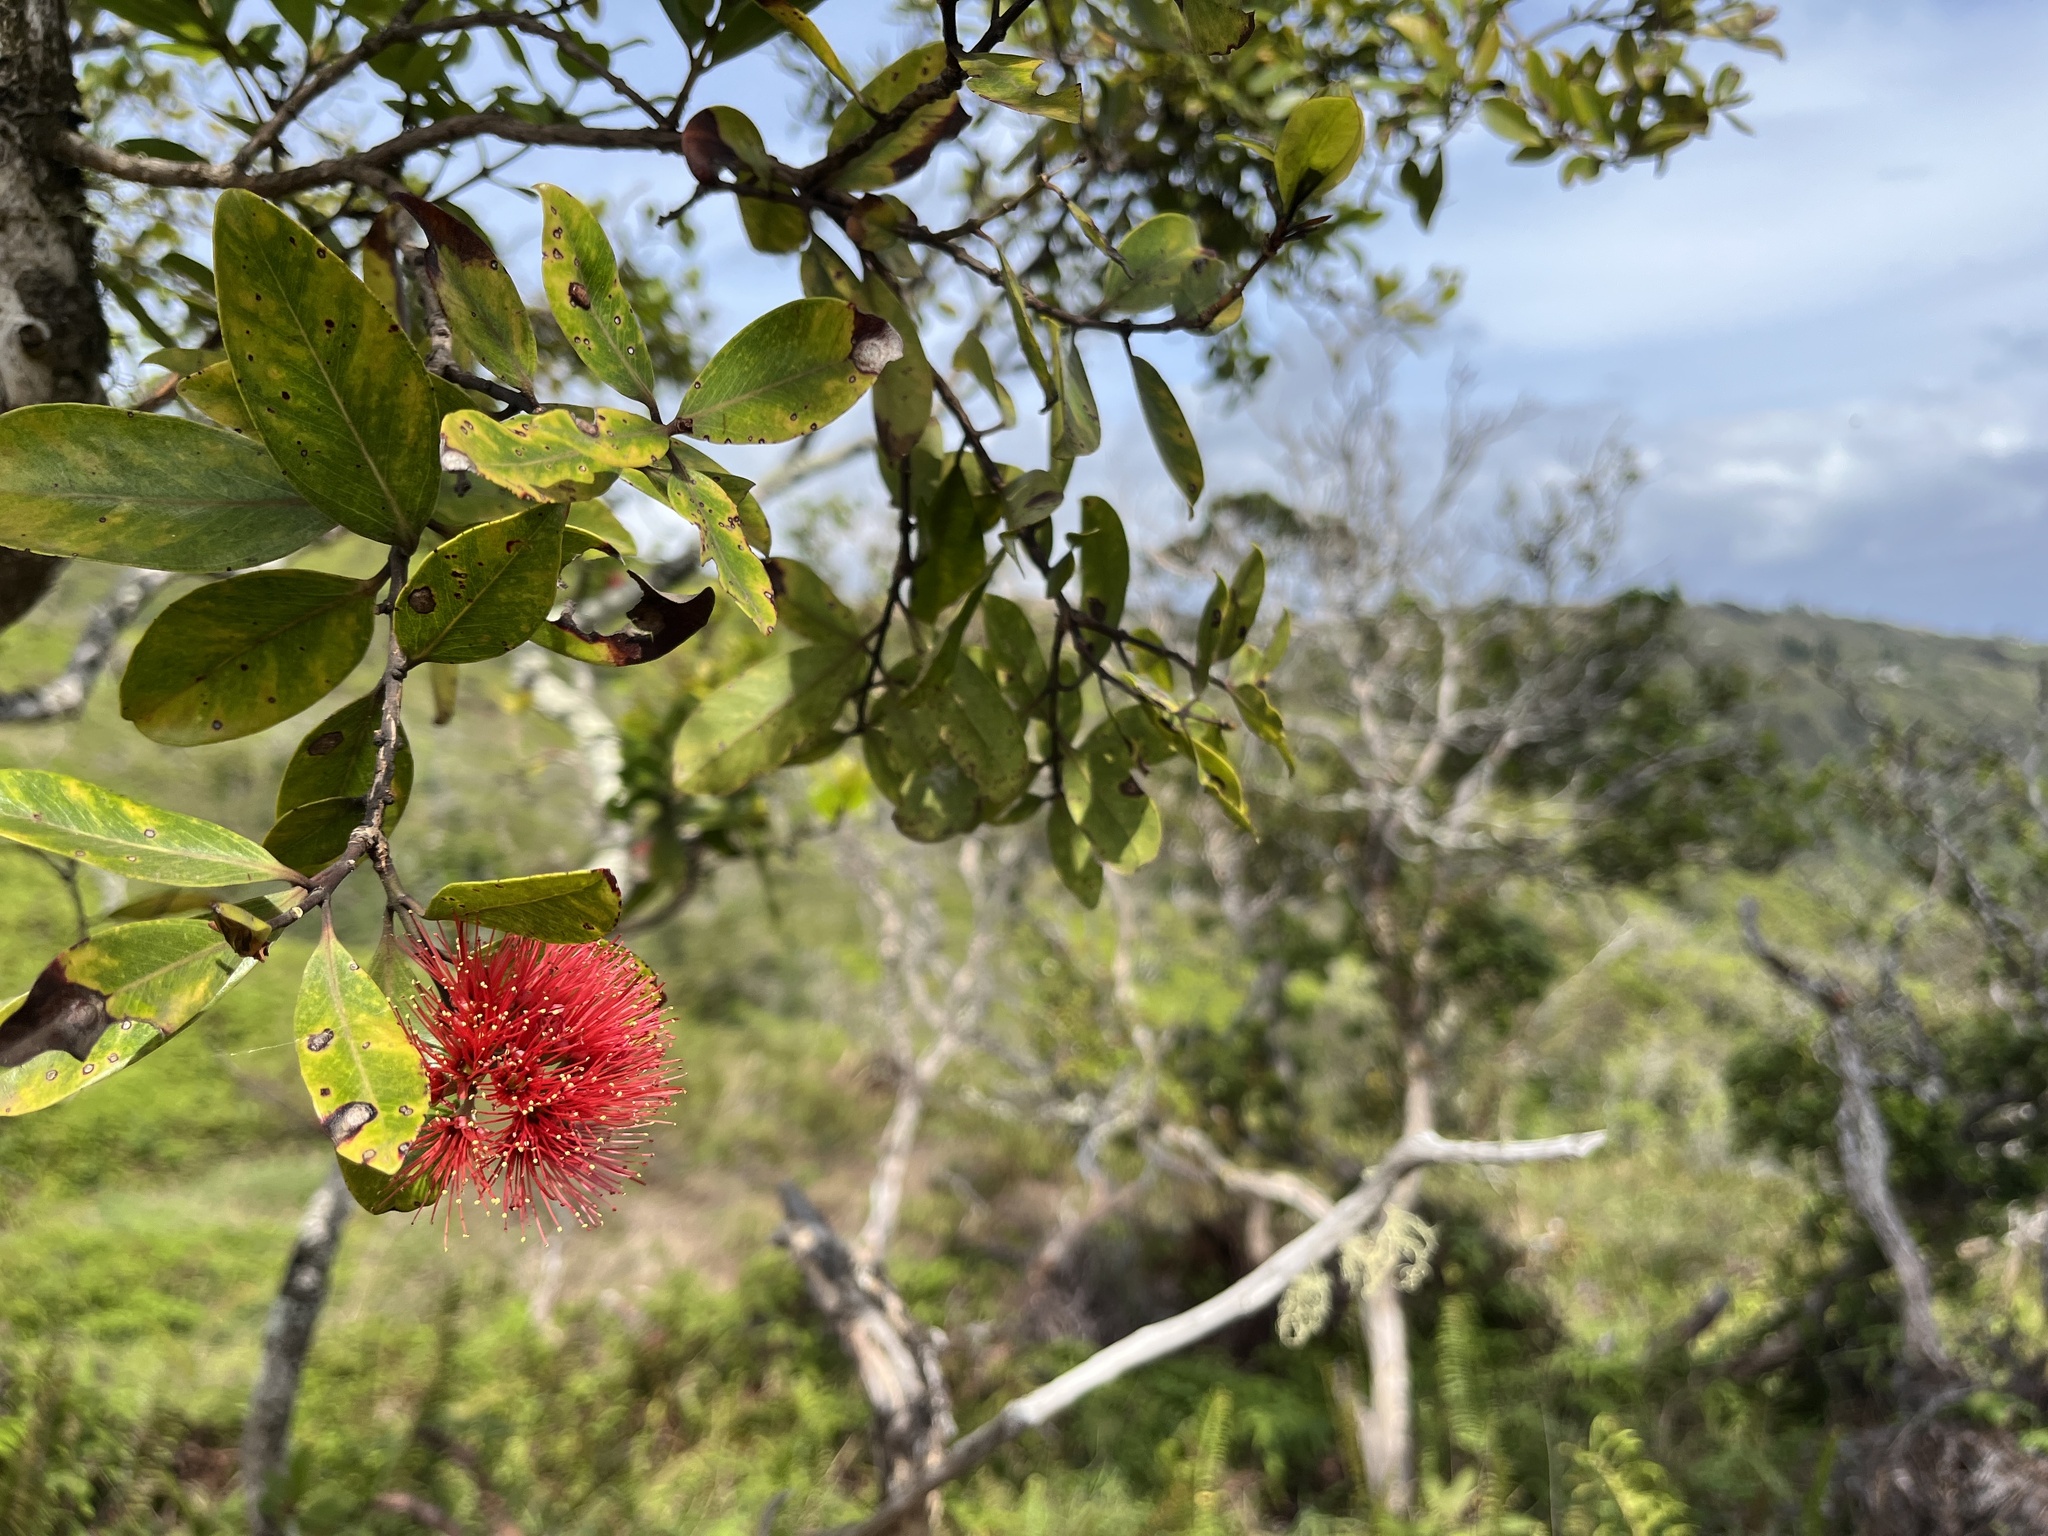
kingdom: Plantae
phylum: Tracheophyta
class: Magnoliopsida
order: Myrtales
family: Myrtaceae
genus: Metrosideros
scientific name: Metrosideros polymorpha
